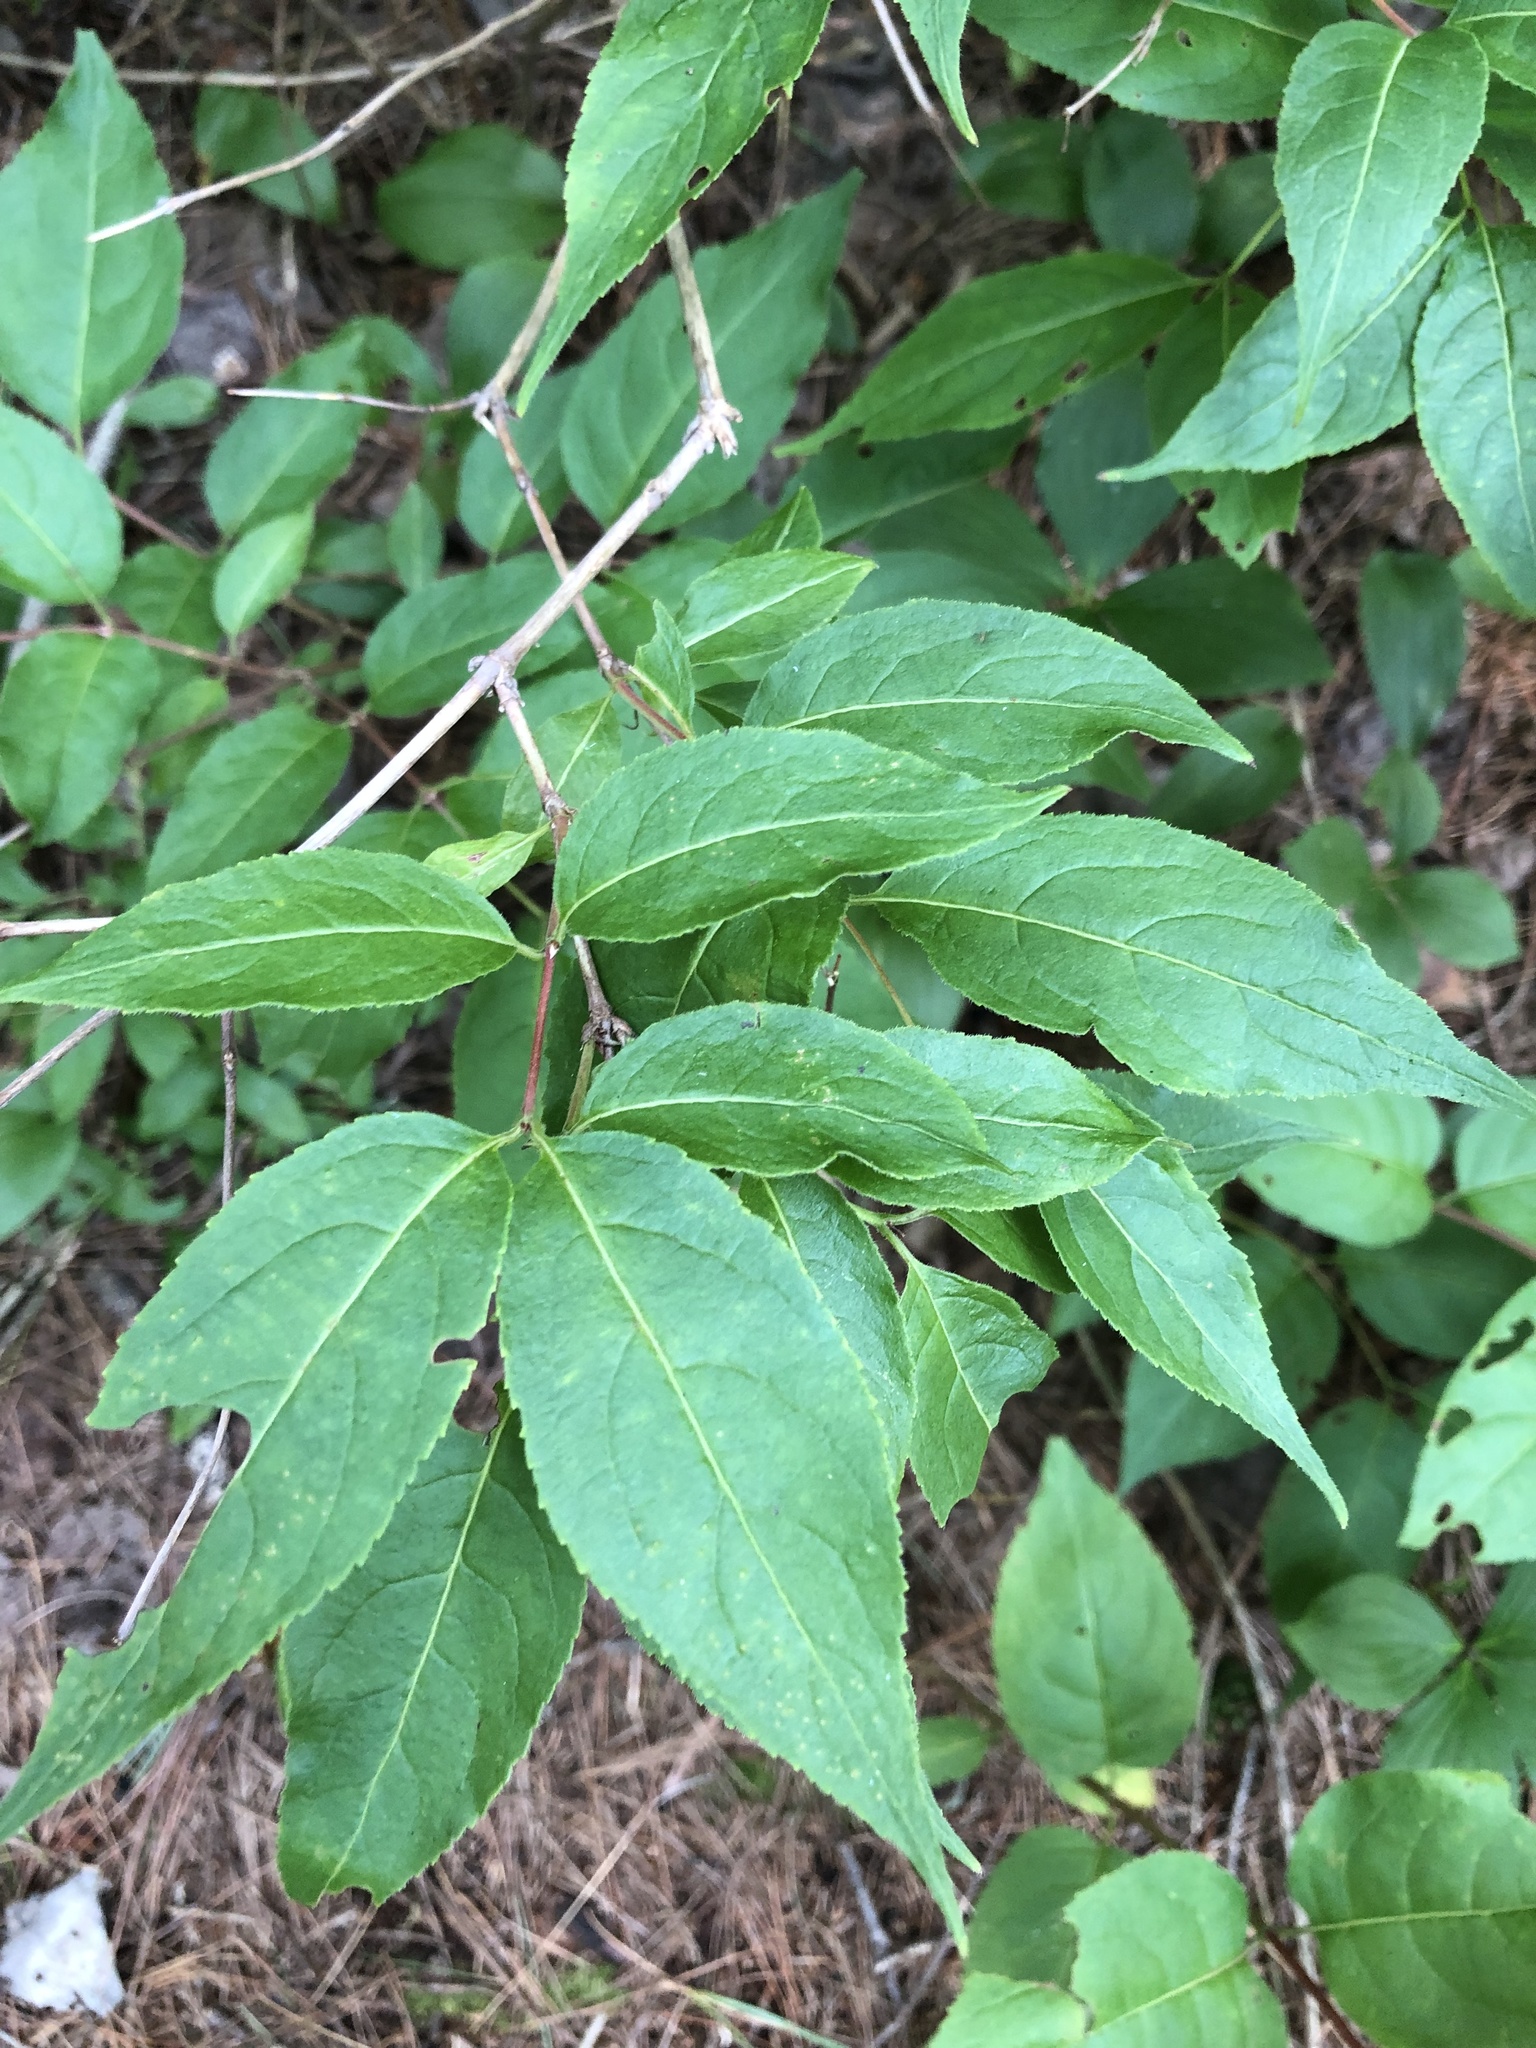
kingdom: Plantae
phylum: Tracheophyta
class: Magnoliopsida
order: Dipsacales
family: Caprifoliaceae
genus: Diervilla
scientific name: Diervilla lonicera
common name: Bush-honeysuckle
